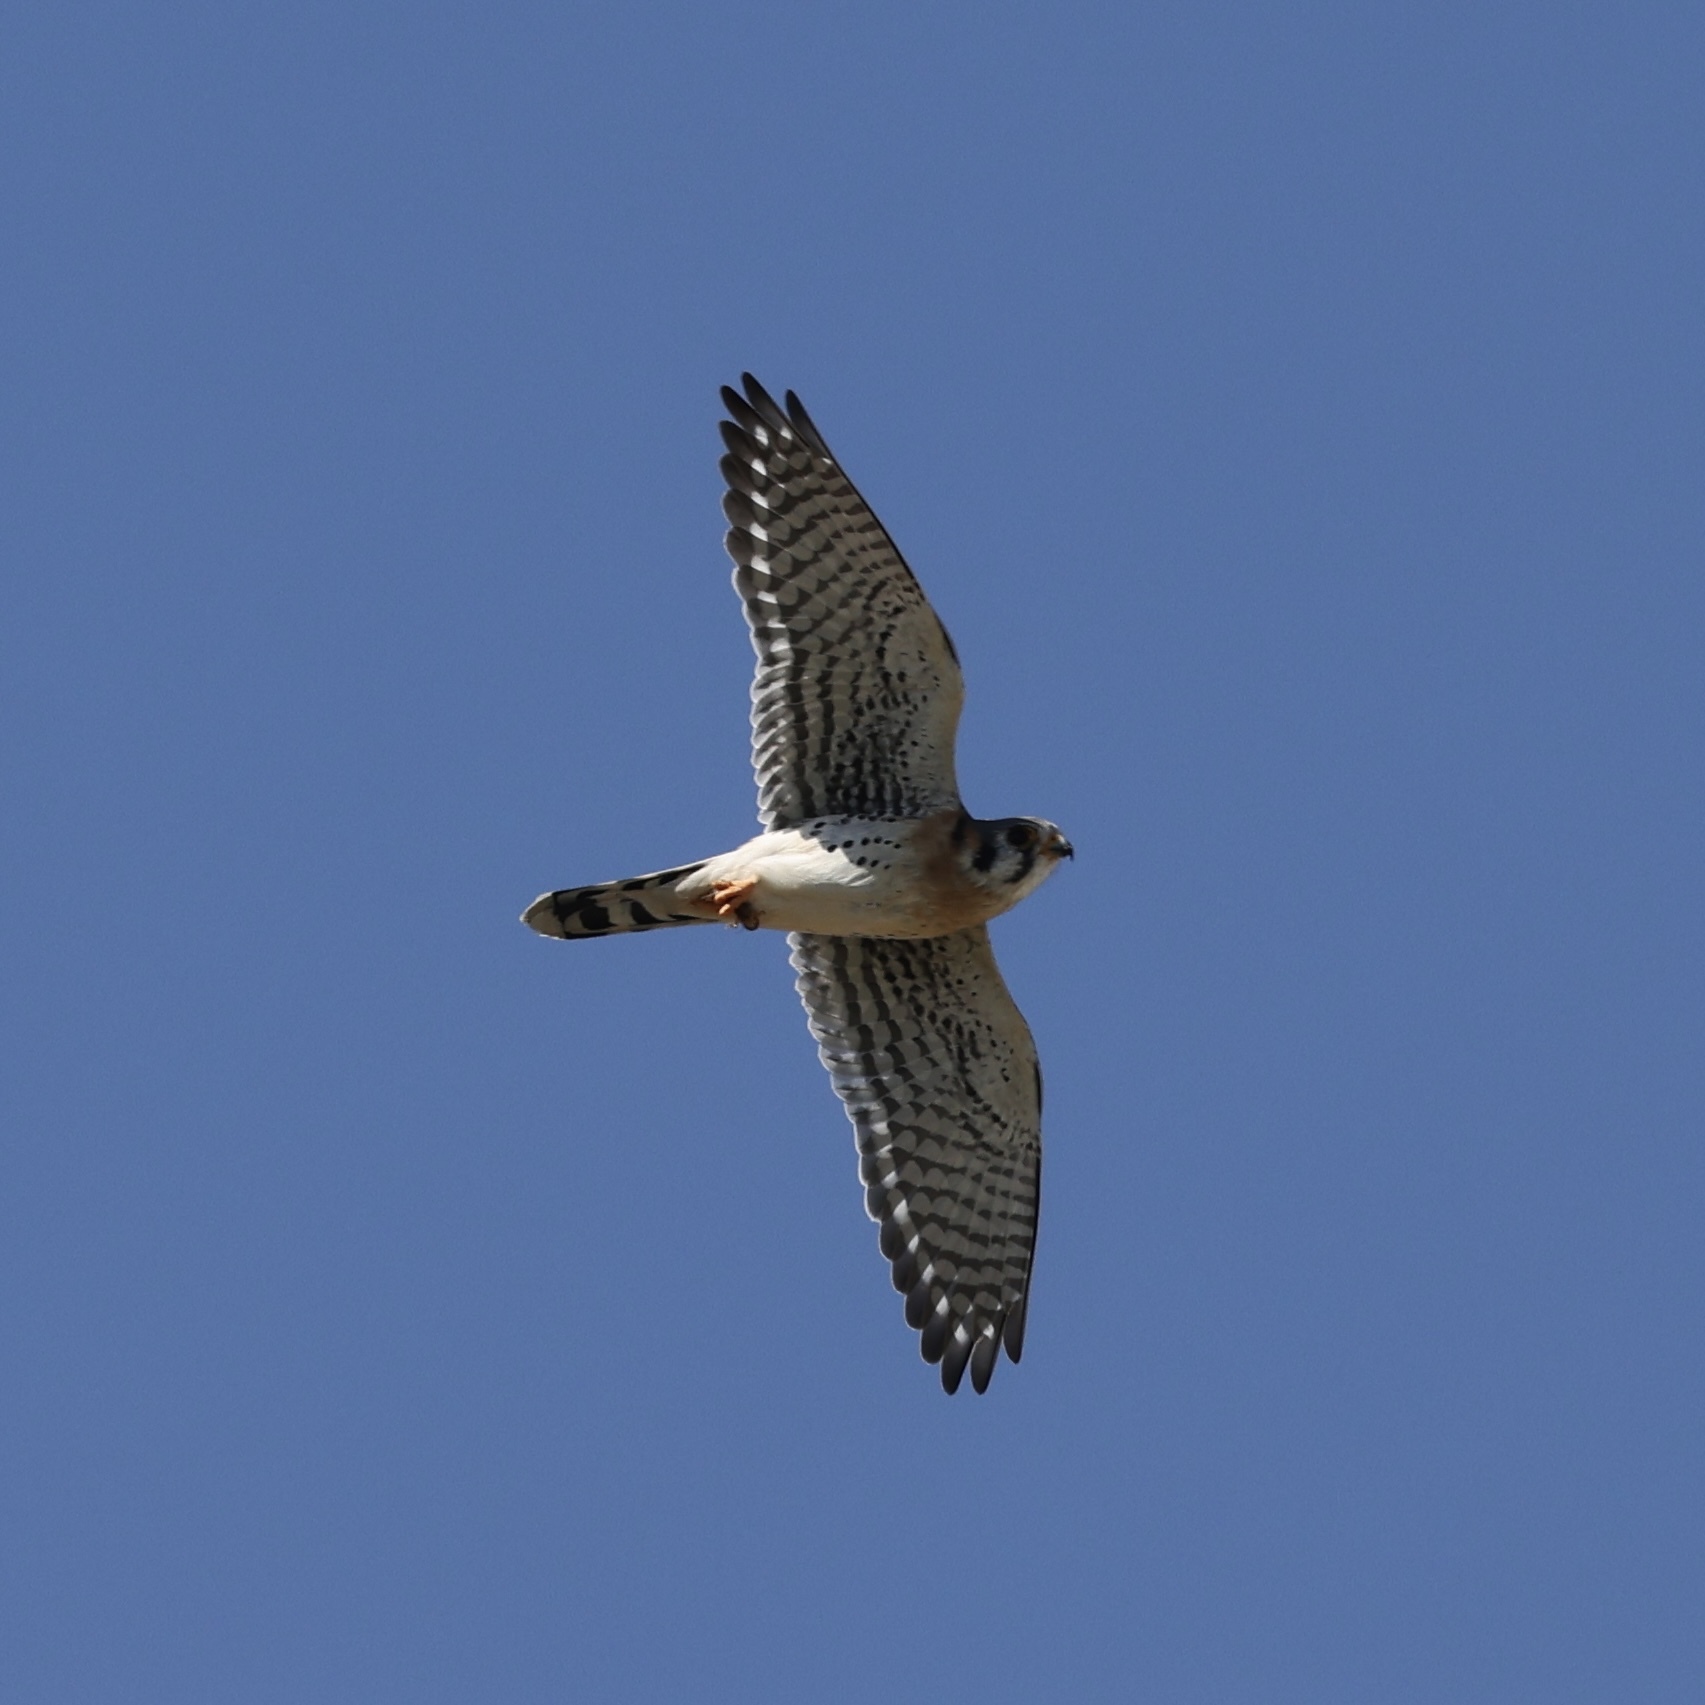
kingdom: Animalia
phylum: Chordata
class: Aves
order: Falconiformes
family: Falconidae
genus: Falco
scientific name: Falco sparverius
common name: American kestrel
